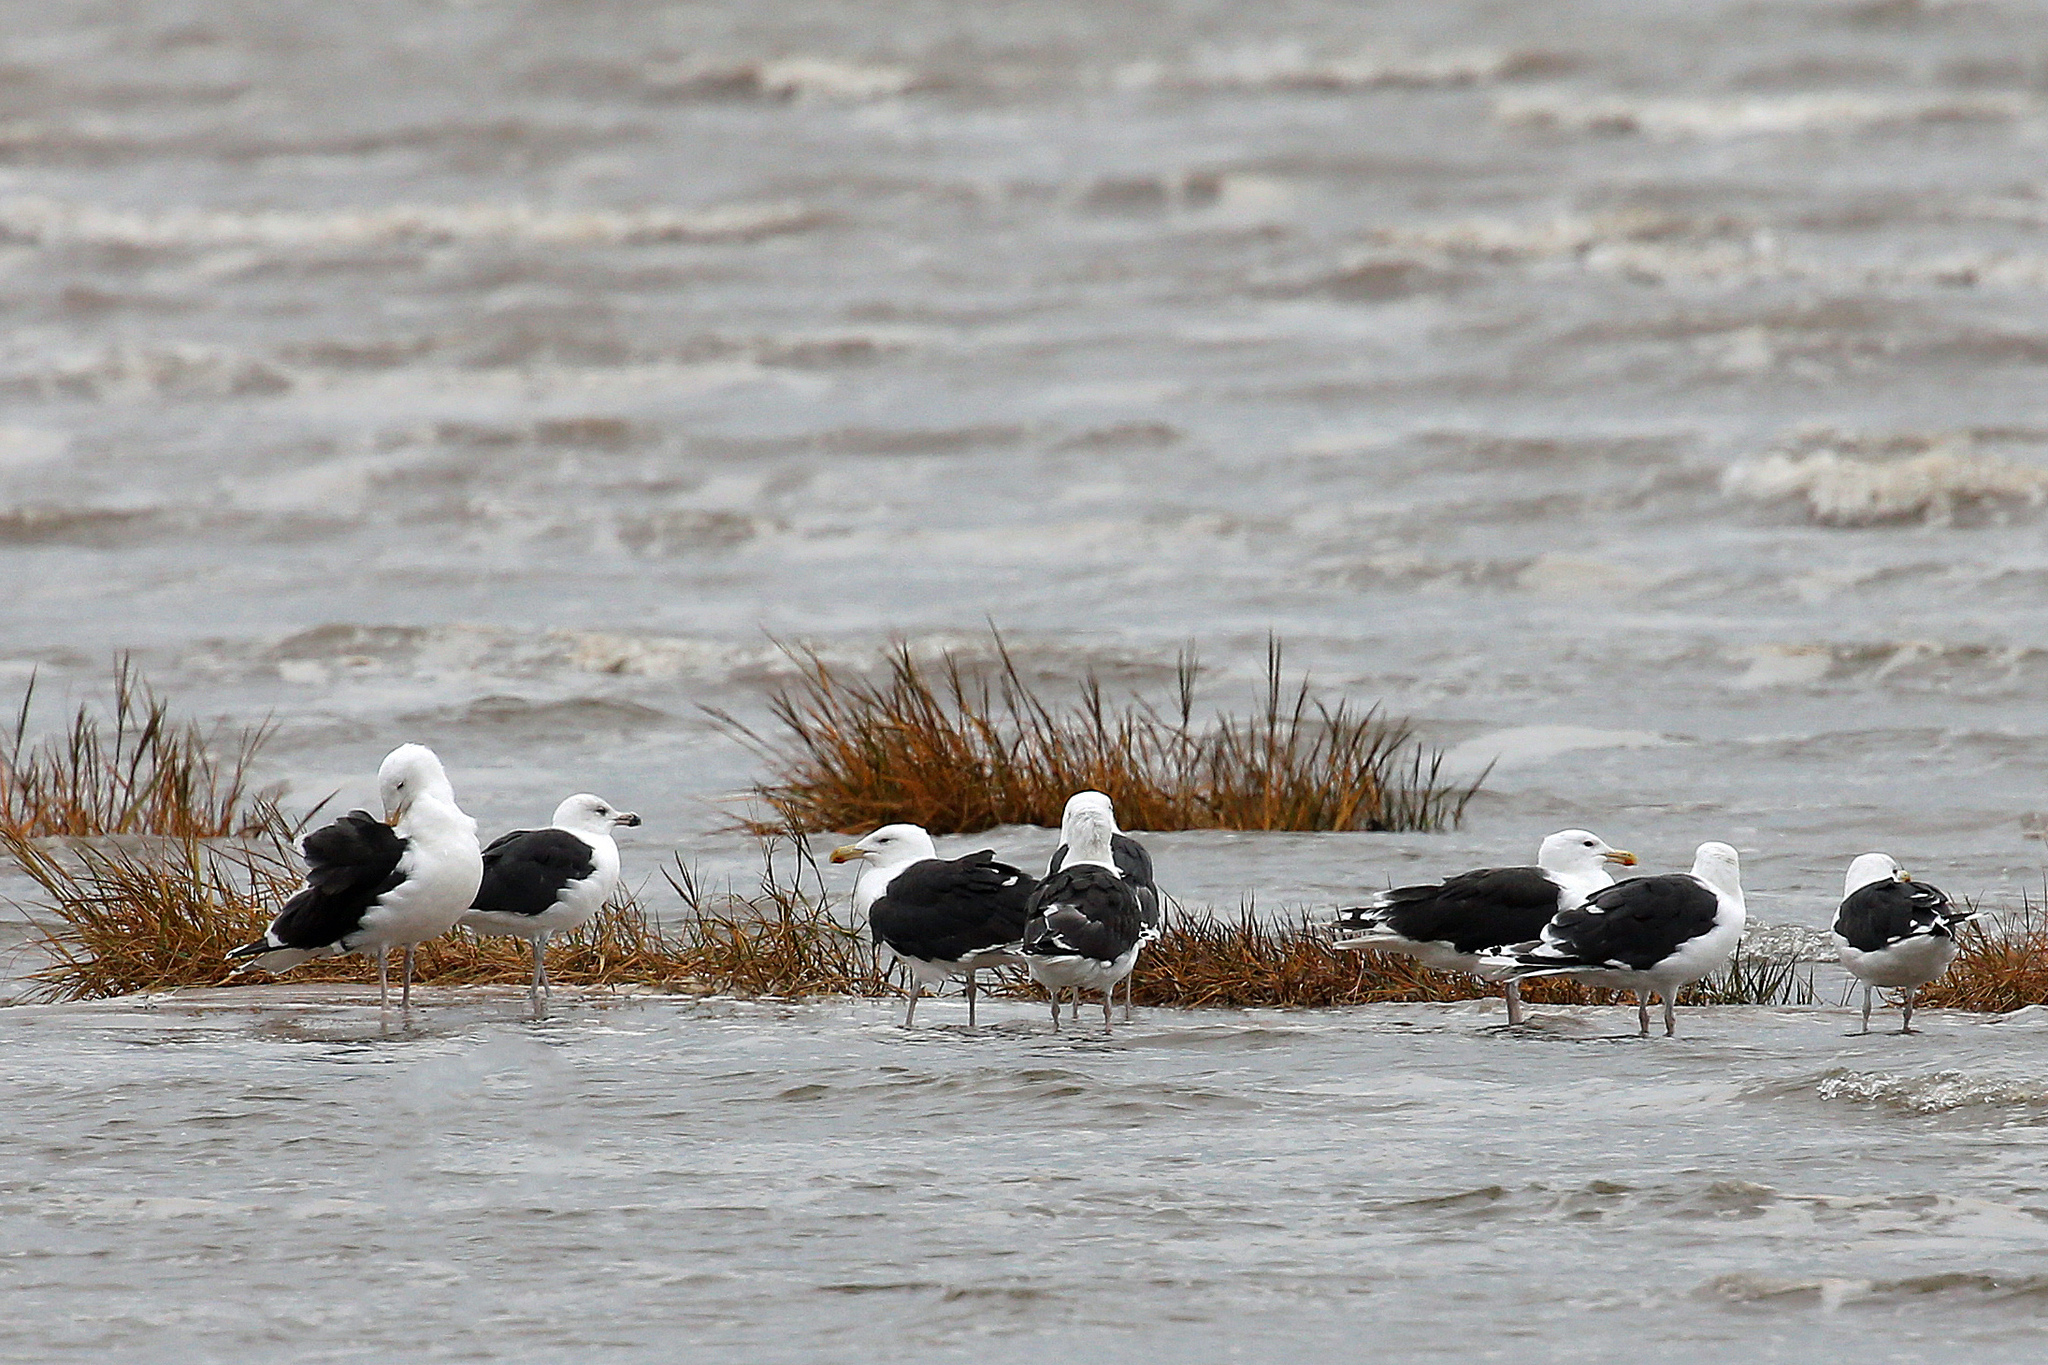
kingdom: Animalia
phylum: Chordata
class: Aves
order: Charadriiformes
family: Laridae
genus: Larus
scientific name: Larus marinus
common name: Great black-backed gull
